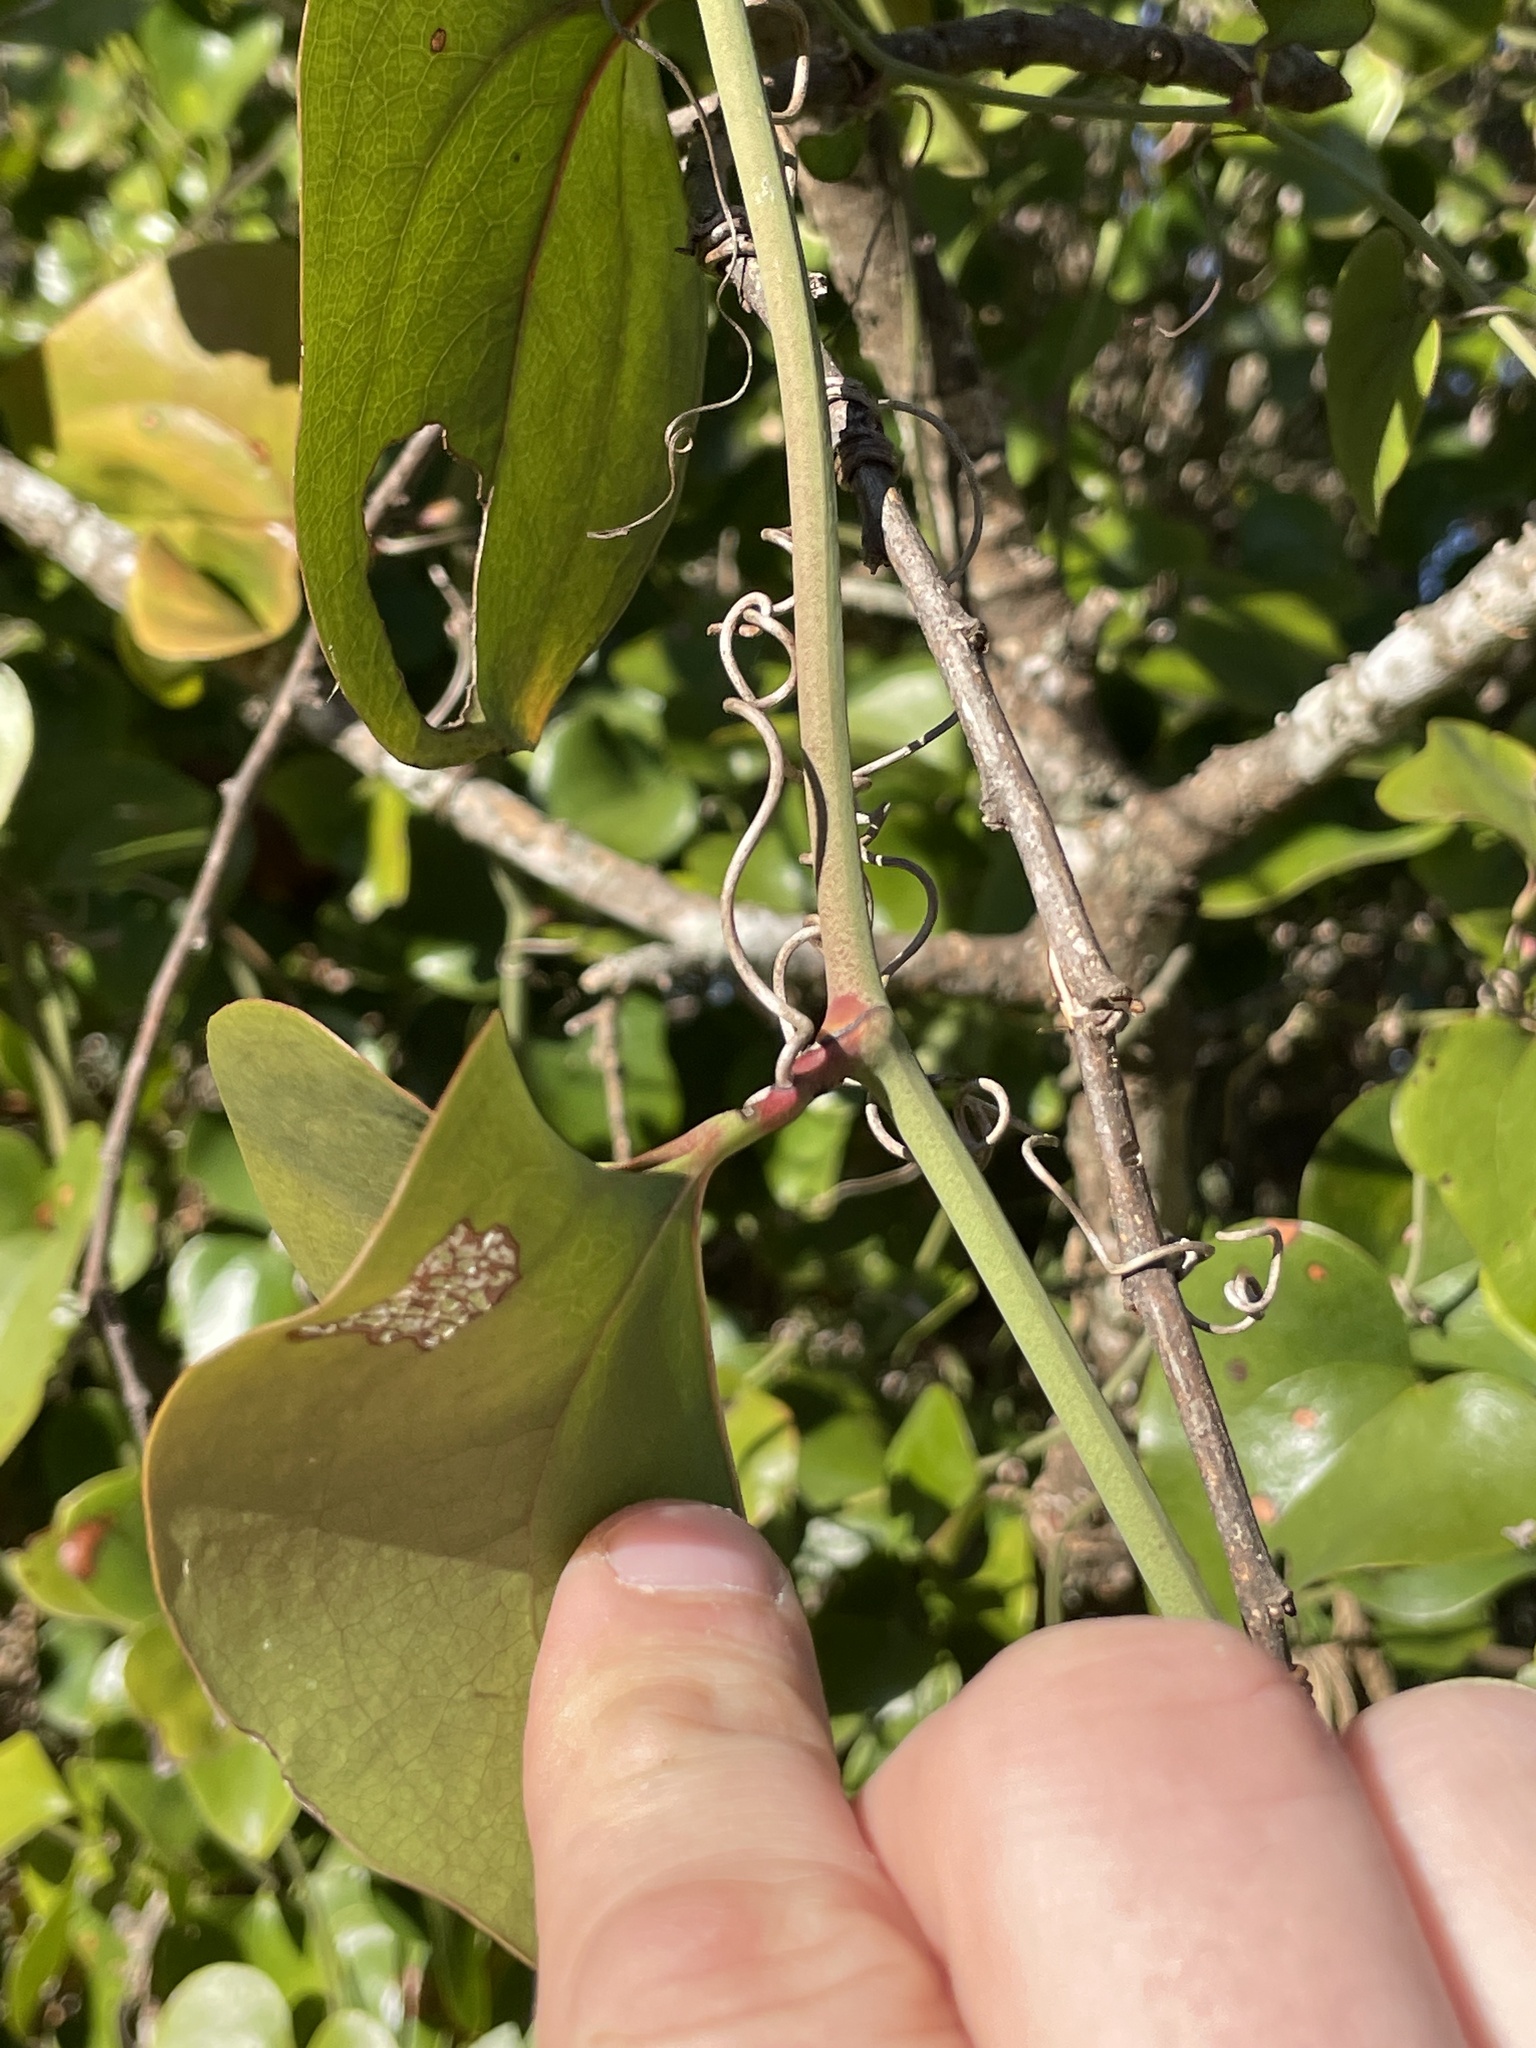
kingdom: Plantae
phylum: Tracheophyta
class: Liliopsida
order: Liliales
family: Smilacaceae
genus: Smilax
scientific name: Smilax bona-nox
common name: Catbrier
